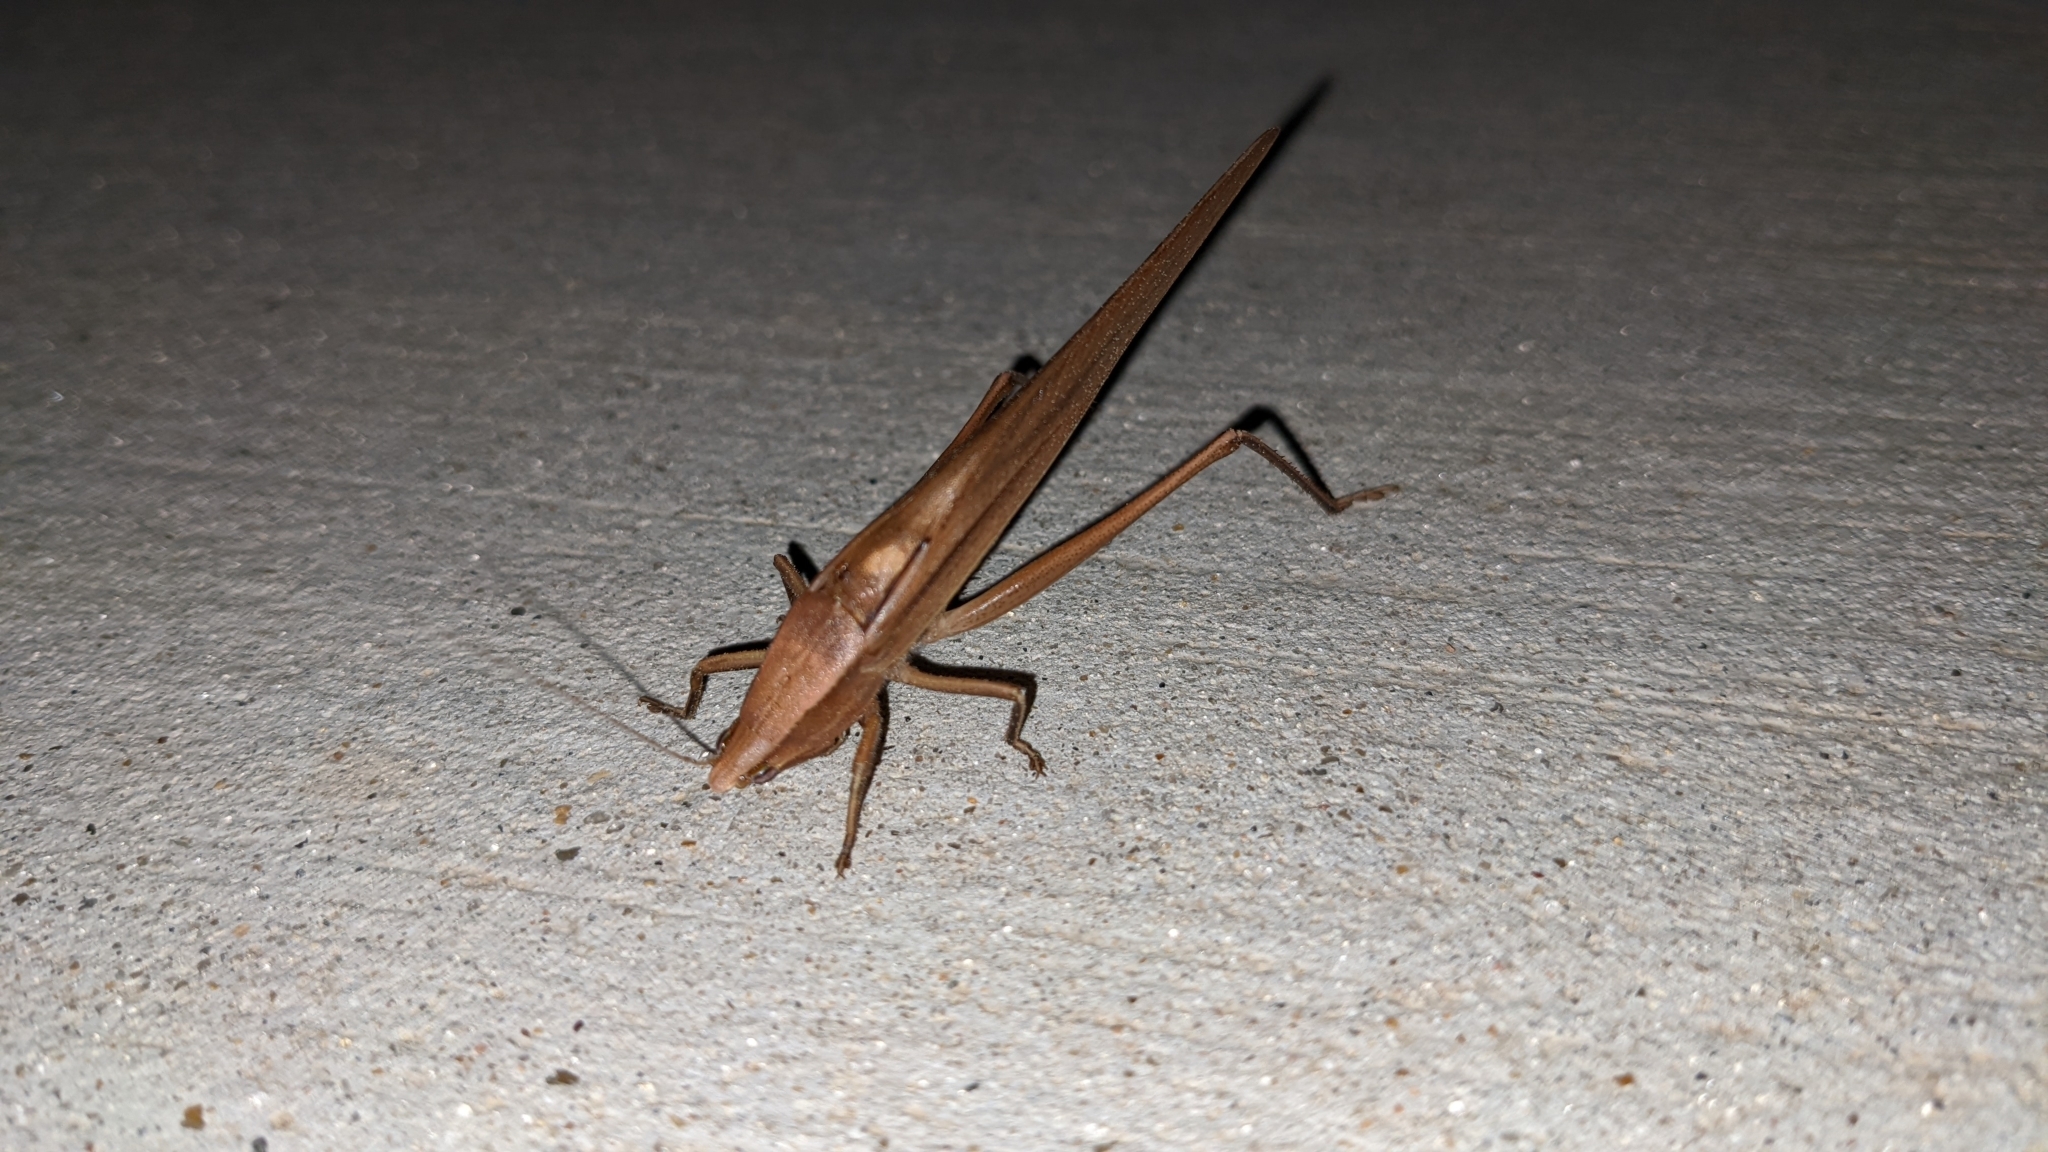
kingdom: Animalia
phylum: Arthropoda
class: Insecta
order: Orthoptera
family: Tettigoniidae
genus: Neoconocephalus
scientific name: Neoconocephalus triops
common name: Broad-tipped conehead
